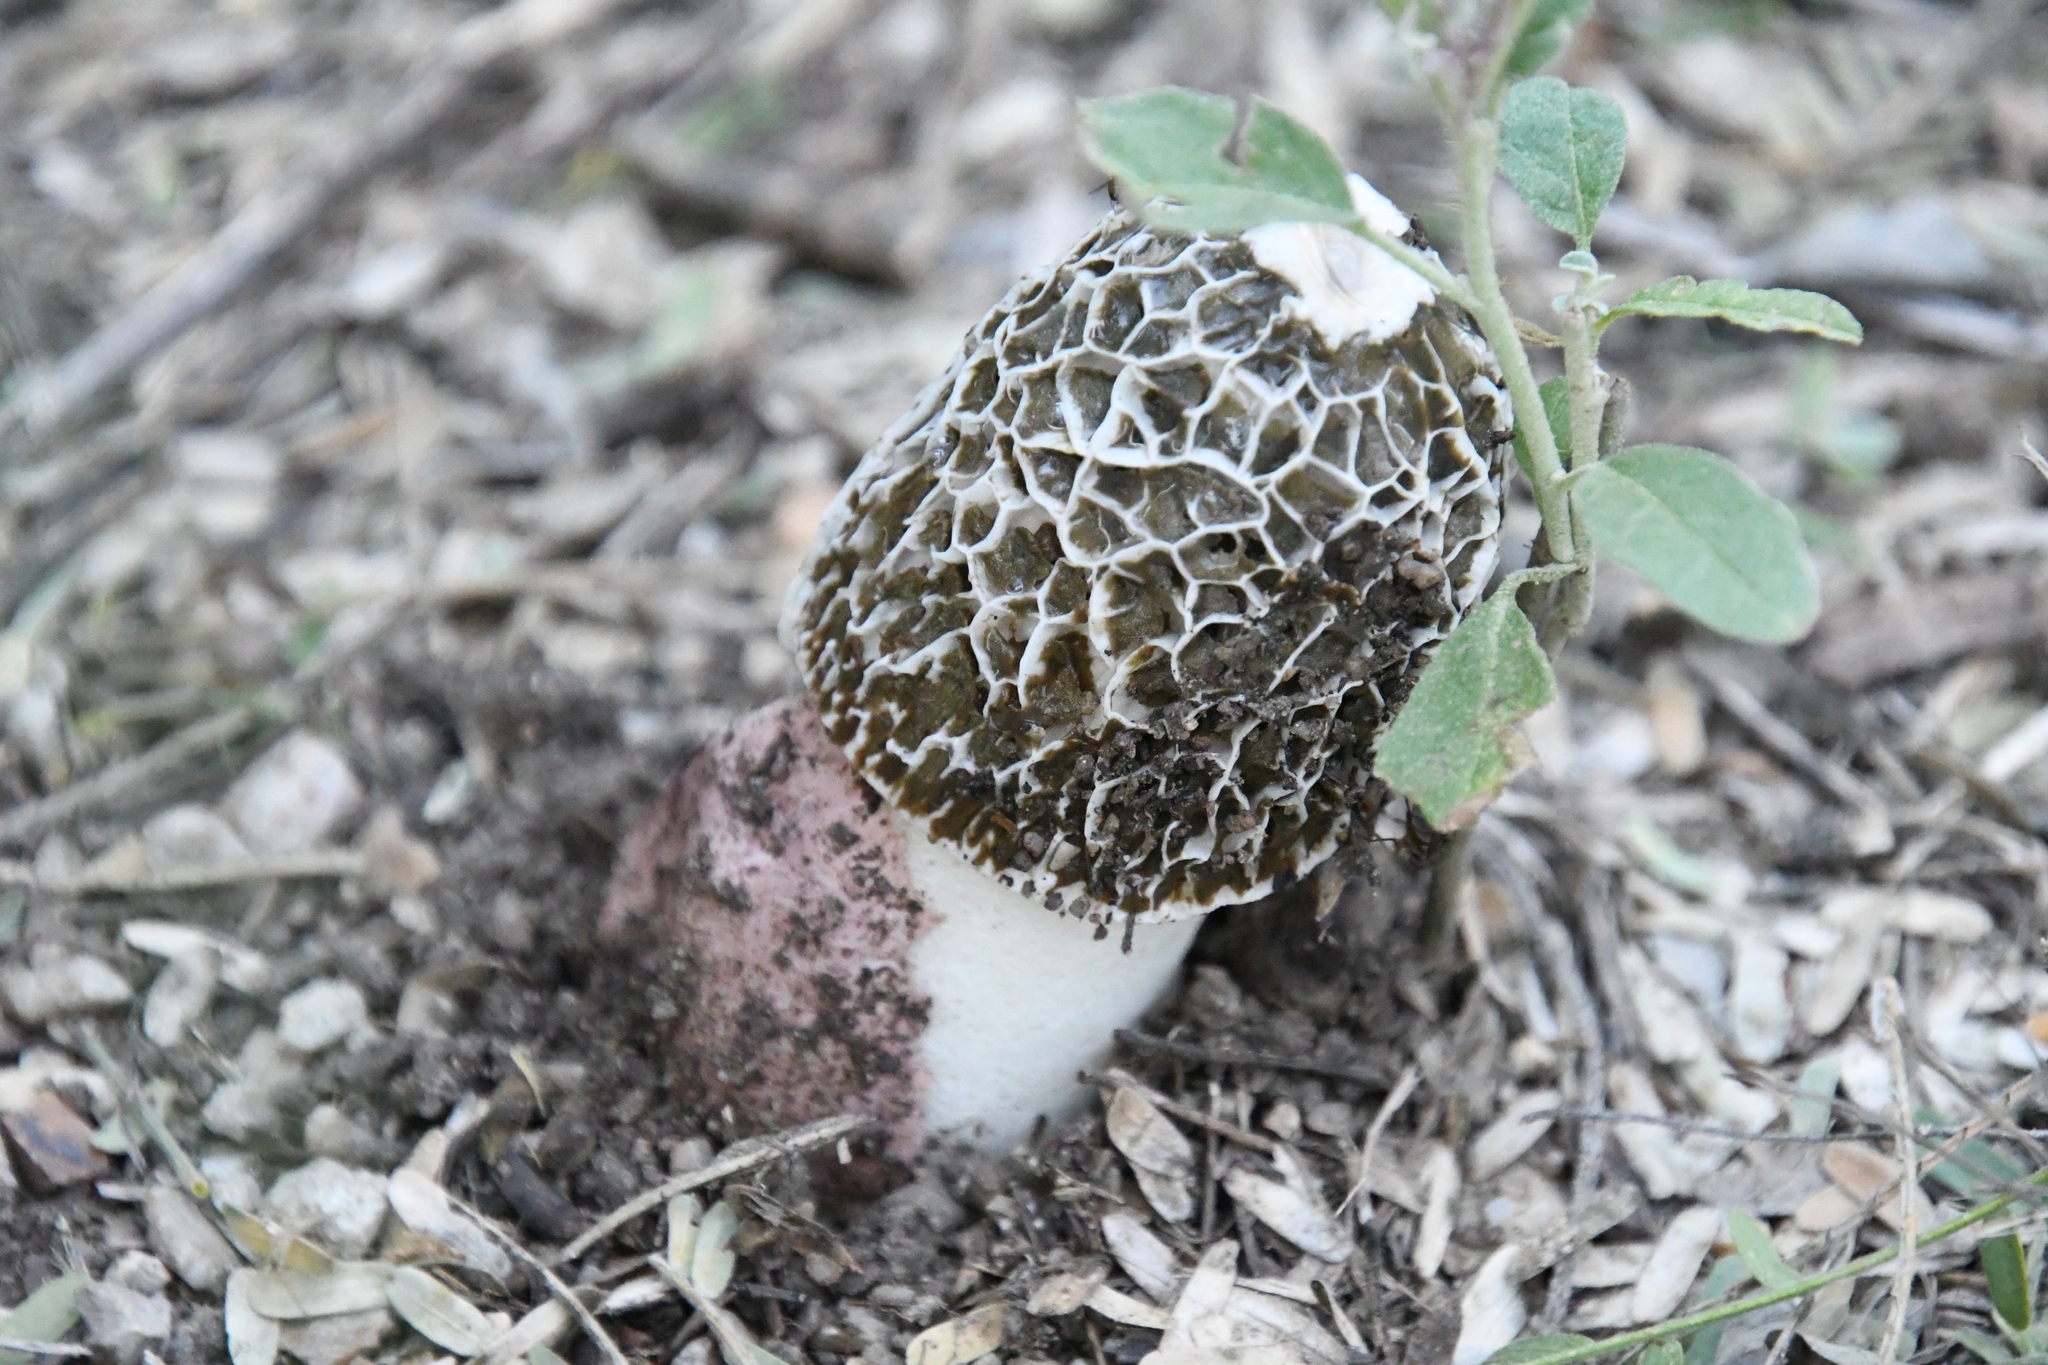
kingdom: Fungi
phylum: Basidiomycota
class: Agaricomycetes
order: Phallales
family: Phallaceae
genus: Phallus
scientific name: Phallus hadriani
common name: Sand stinkhorn
